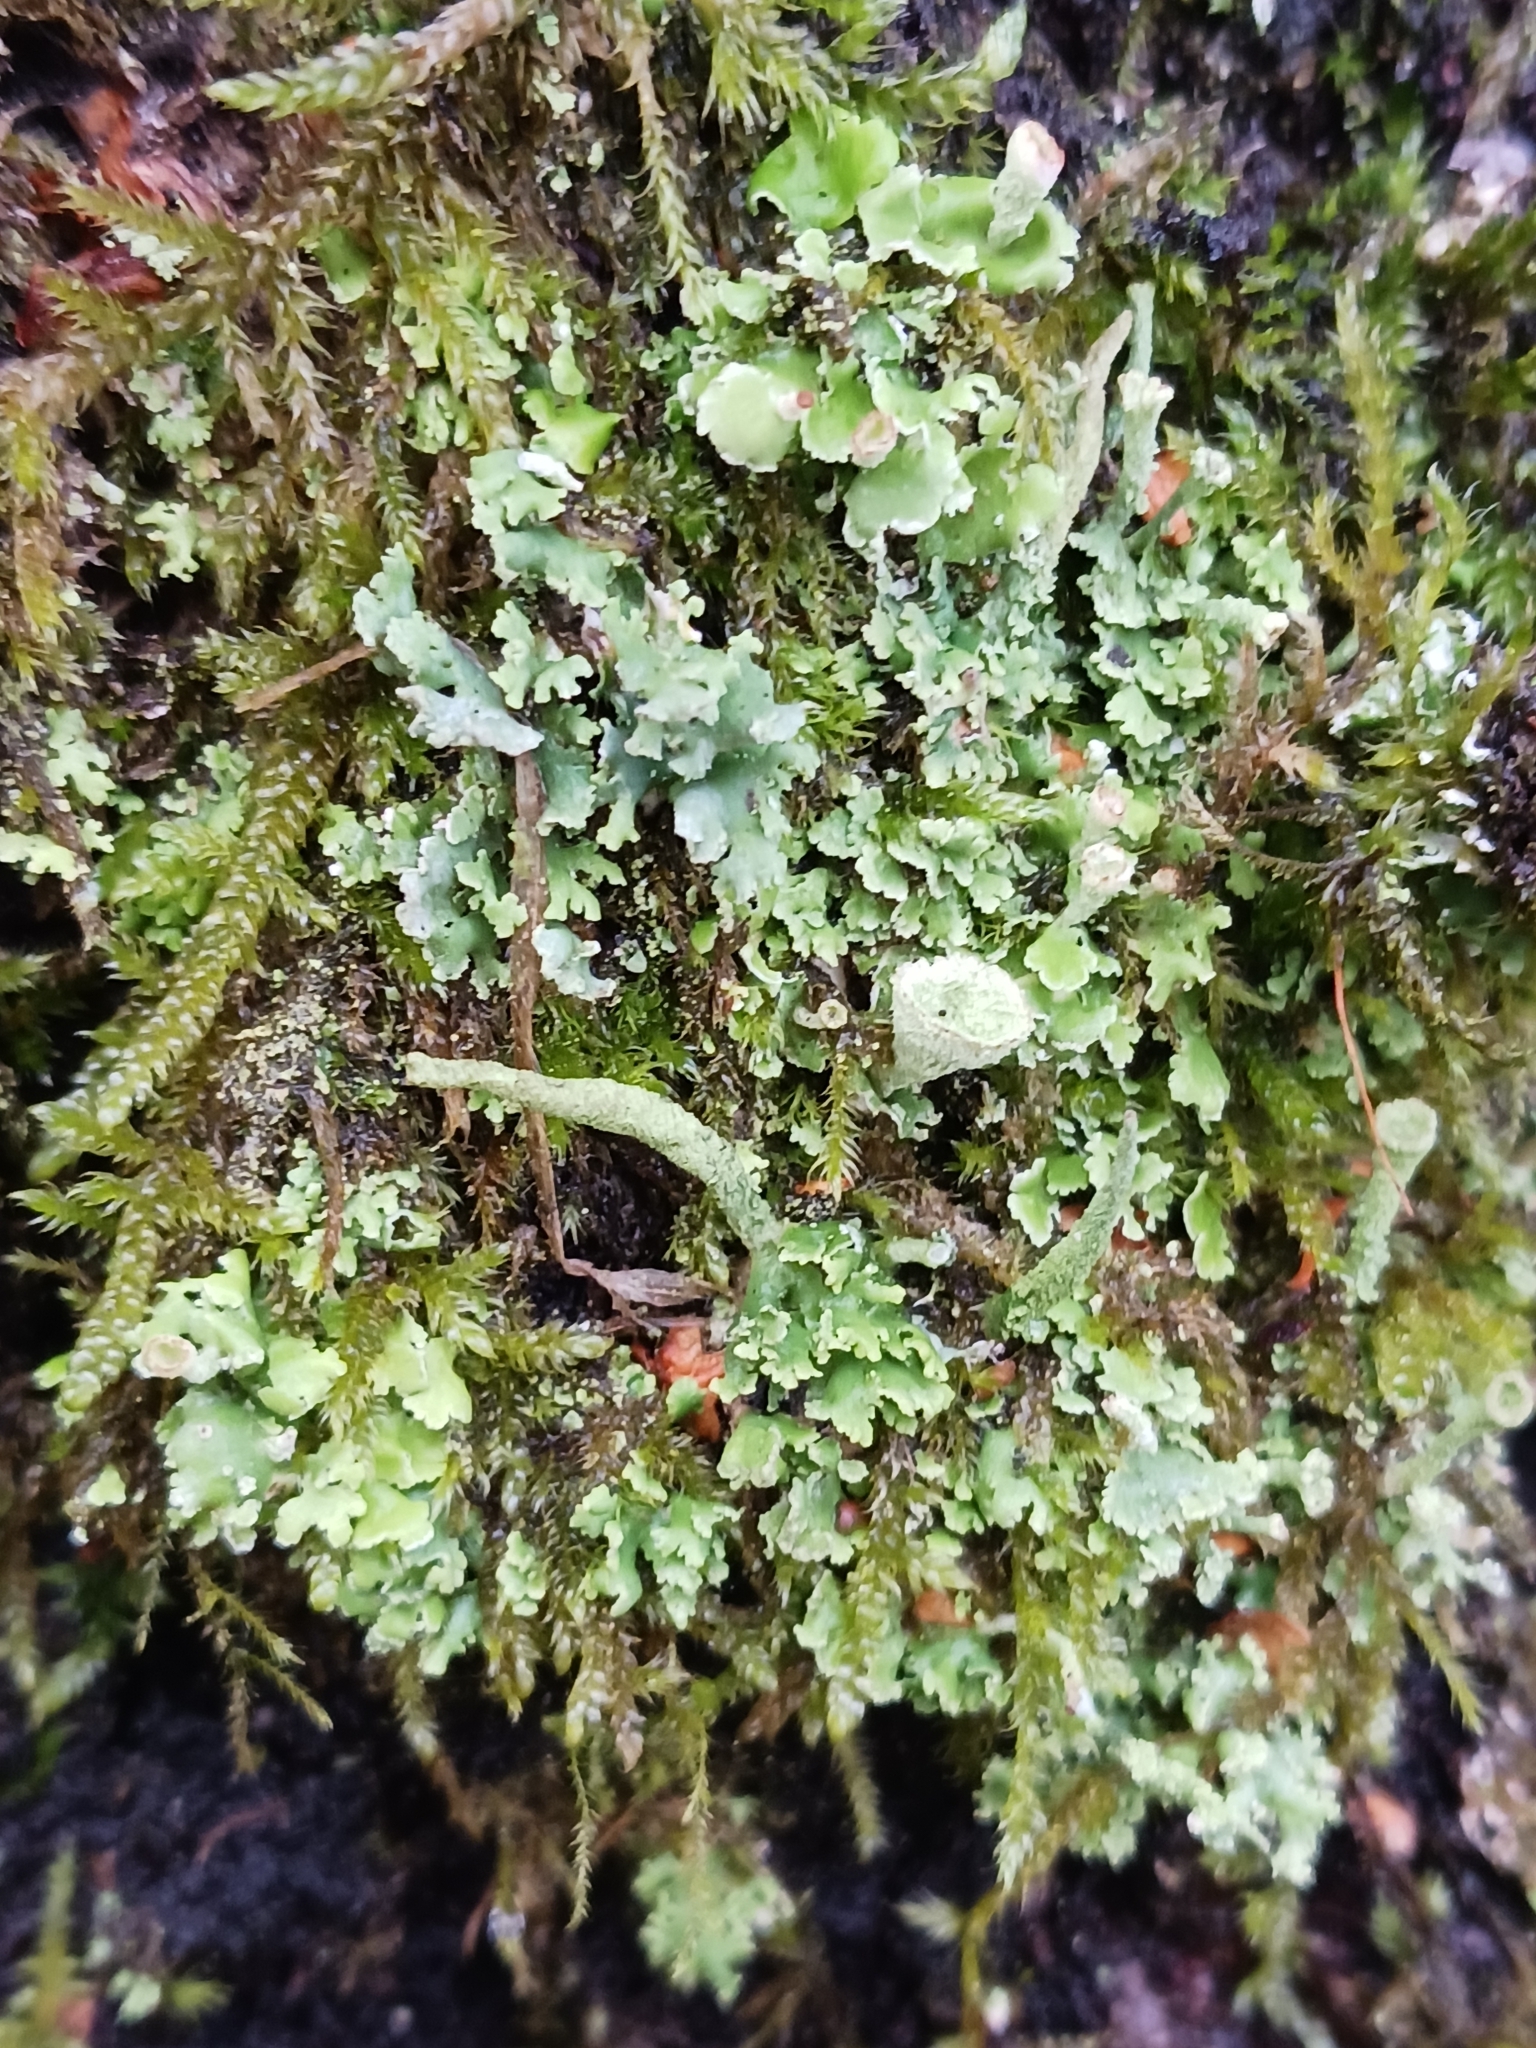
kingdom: Fungi
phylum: Ascomycota
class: Lecanoromycetes
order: Lecanorales
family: Cladoniaceae
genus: Cladonia
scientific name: Cladonia fimbriata
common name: Powdered trumpet lichen
